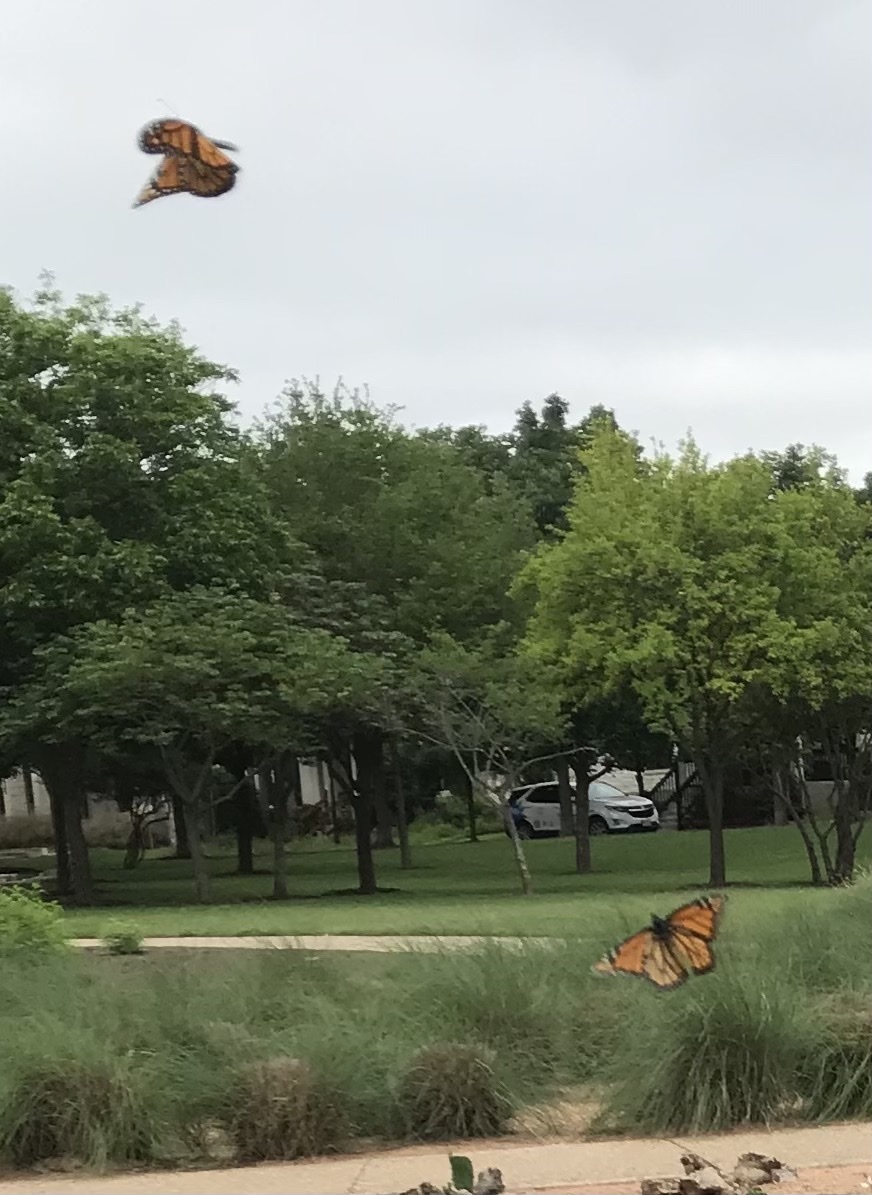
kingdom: Animalia
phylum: Arthropoda
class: Insecta
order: Lepidoptera
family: Nymphalidae
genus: Danaus
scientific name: Danaus plexippus
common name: Monarch
